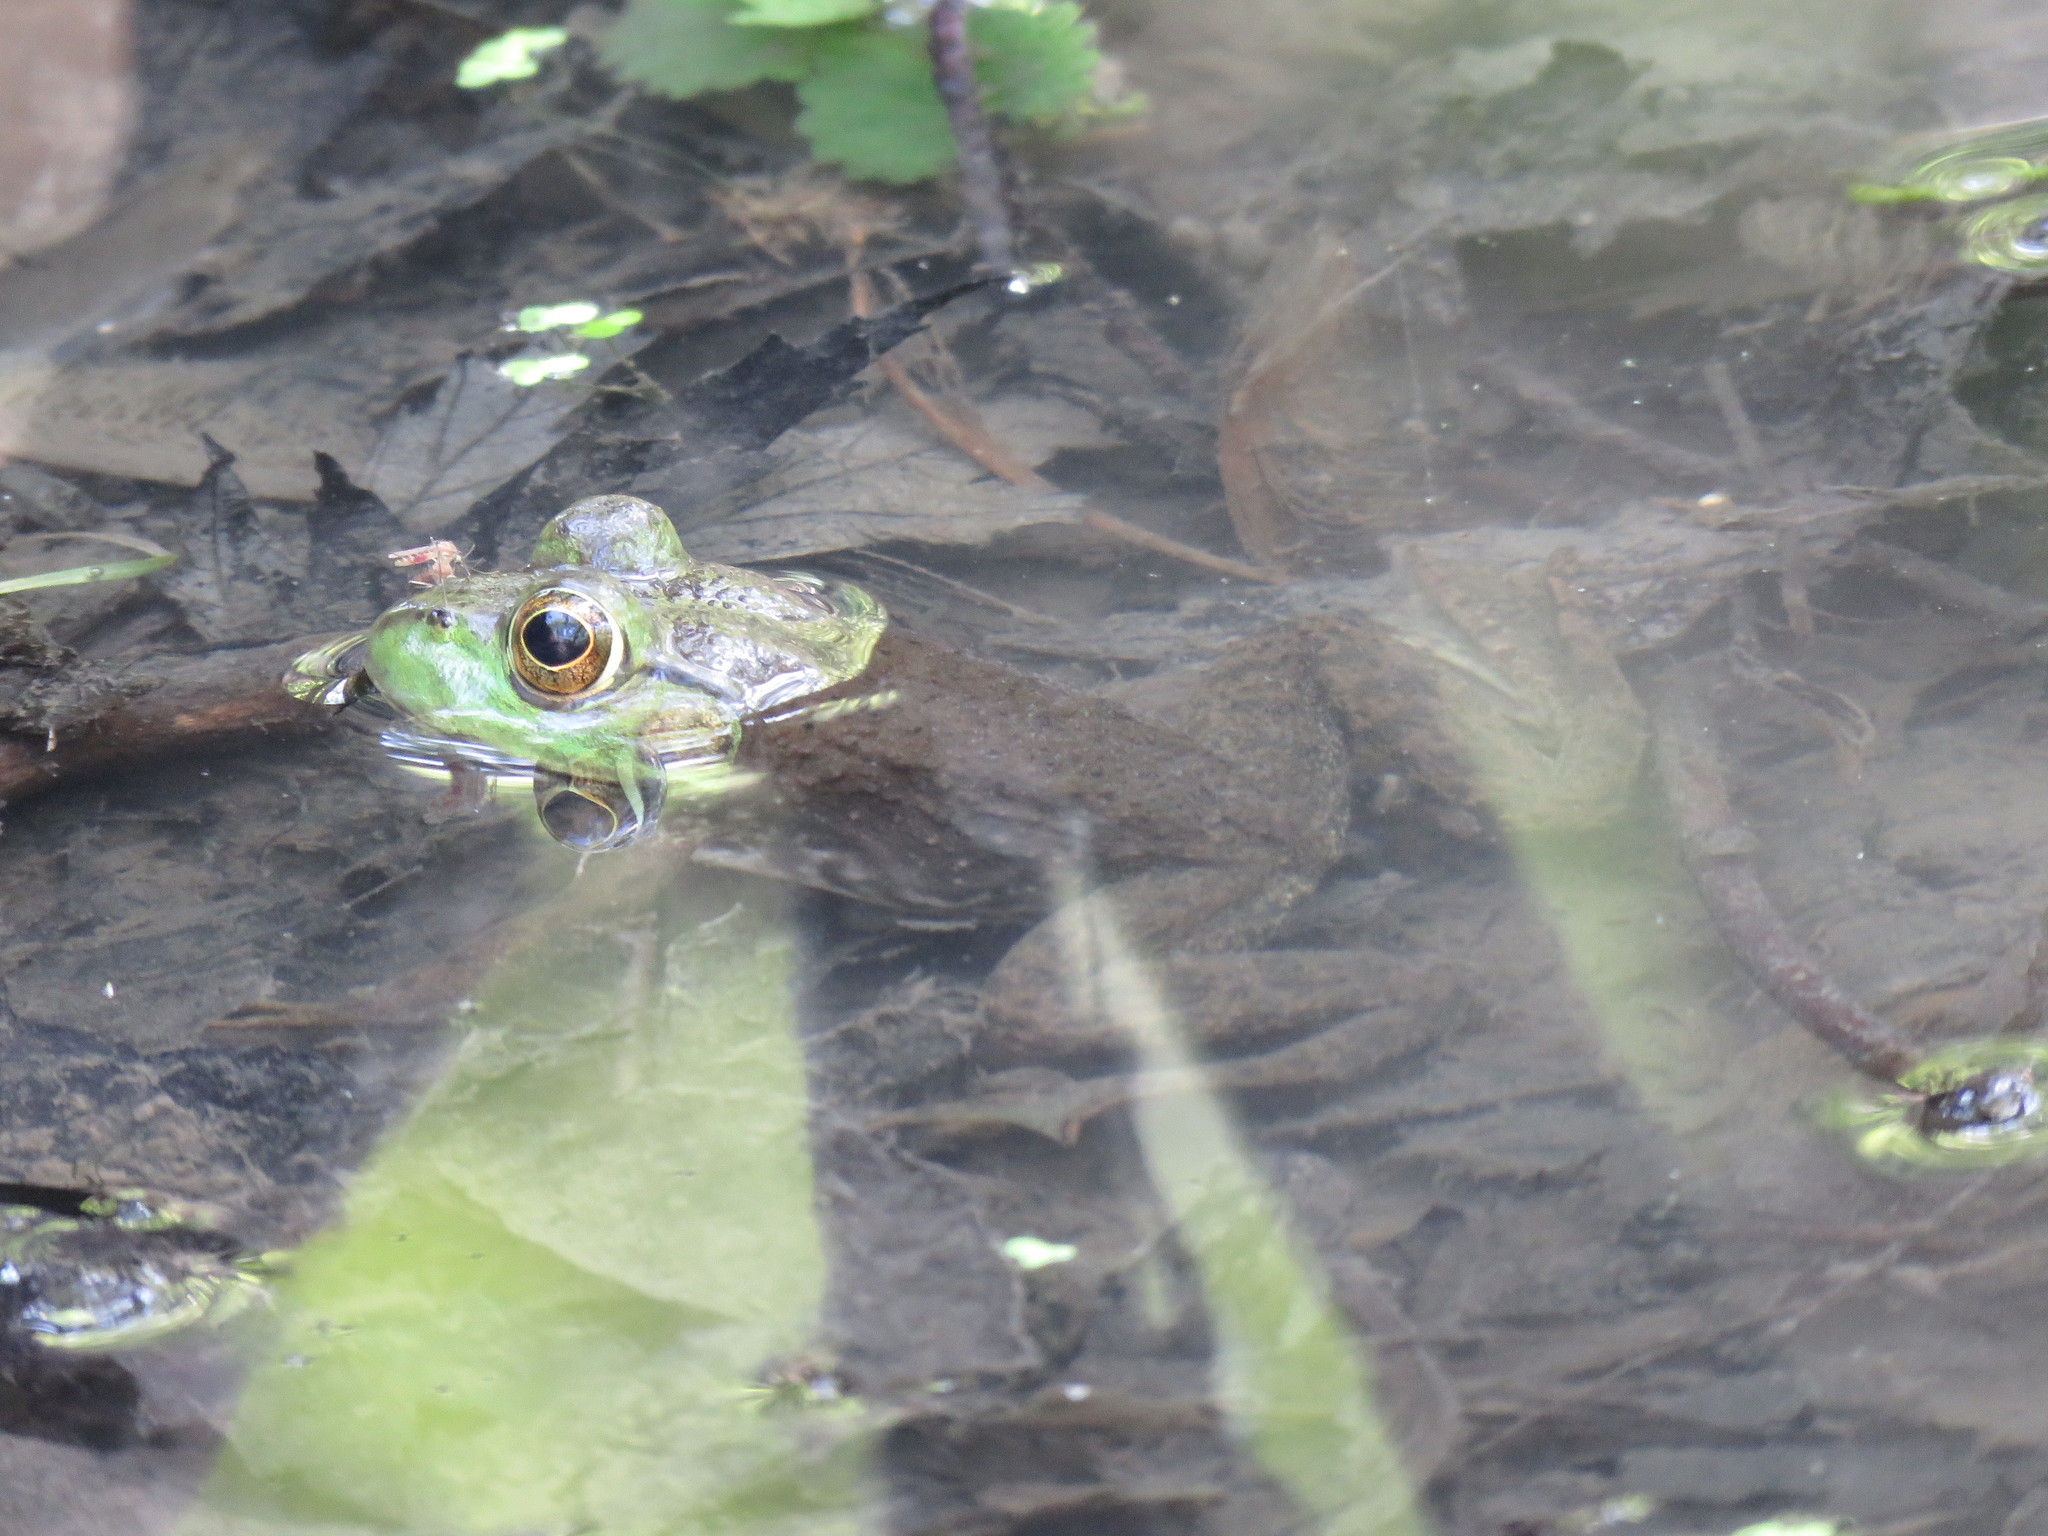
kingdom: Animalia
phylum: Chordata
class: Amphibia
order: Anura
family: Ranidae
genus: Lithobates
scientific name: Lithobates clamitans
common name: Green frog
